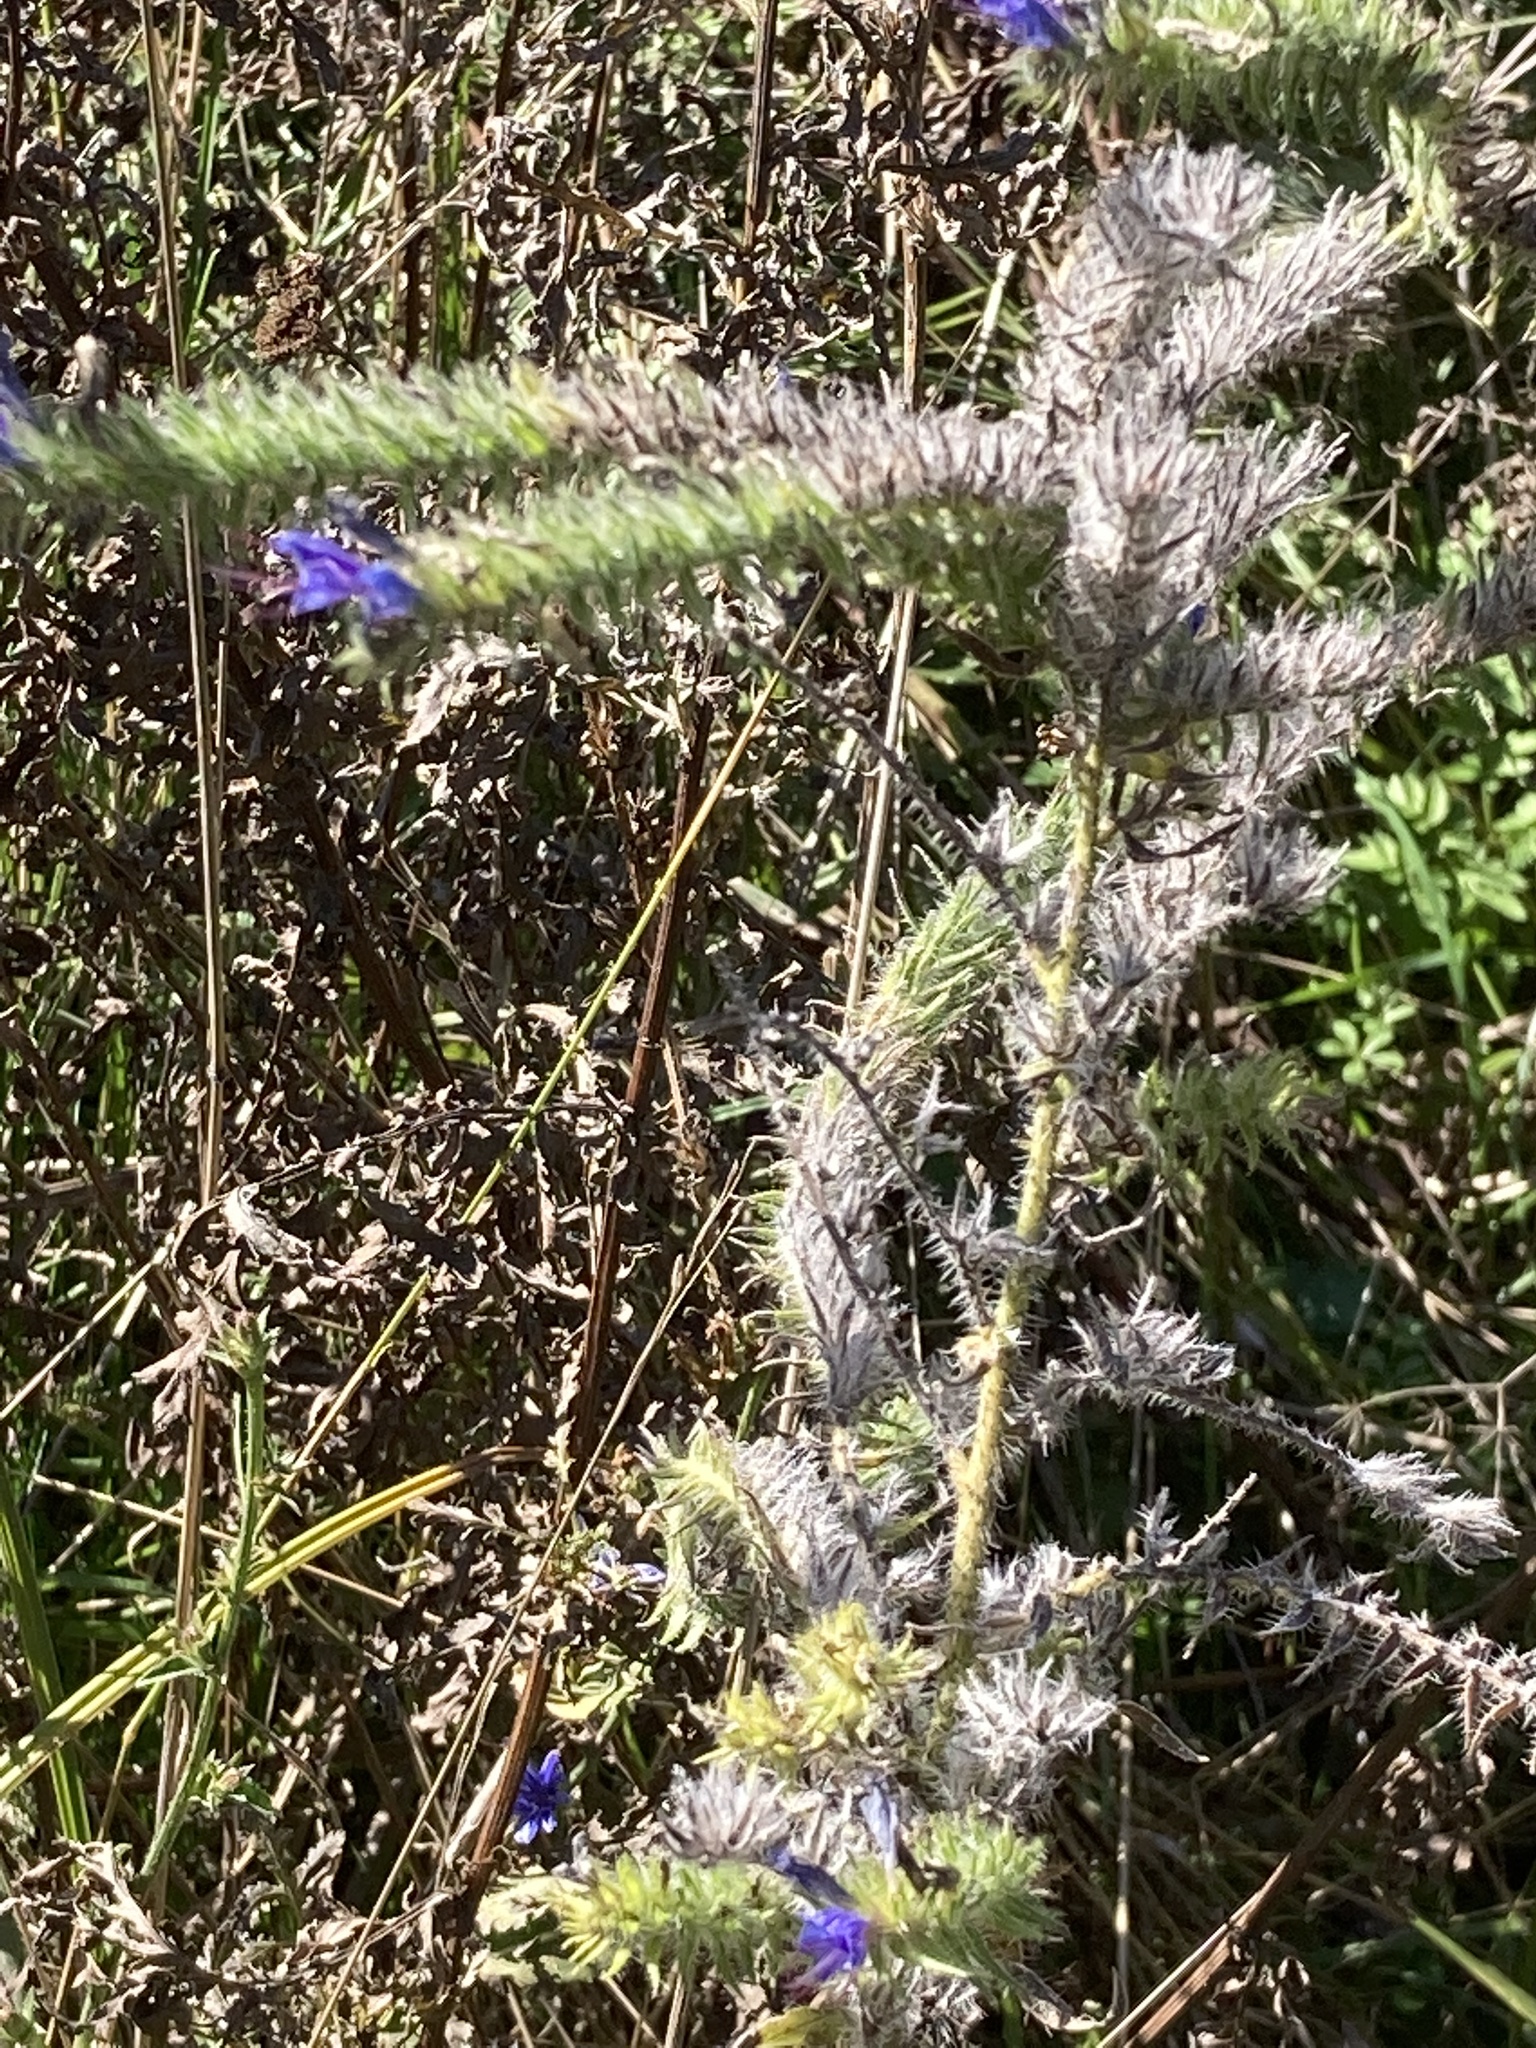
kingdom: Plantae
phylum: Tracheophyta
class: Magnoliopsida
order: Boraginales
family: Boraginaceae
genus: Echium
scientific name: Echium vulgare
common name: Common viper's bugloss
